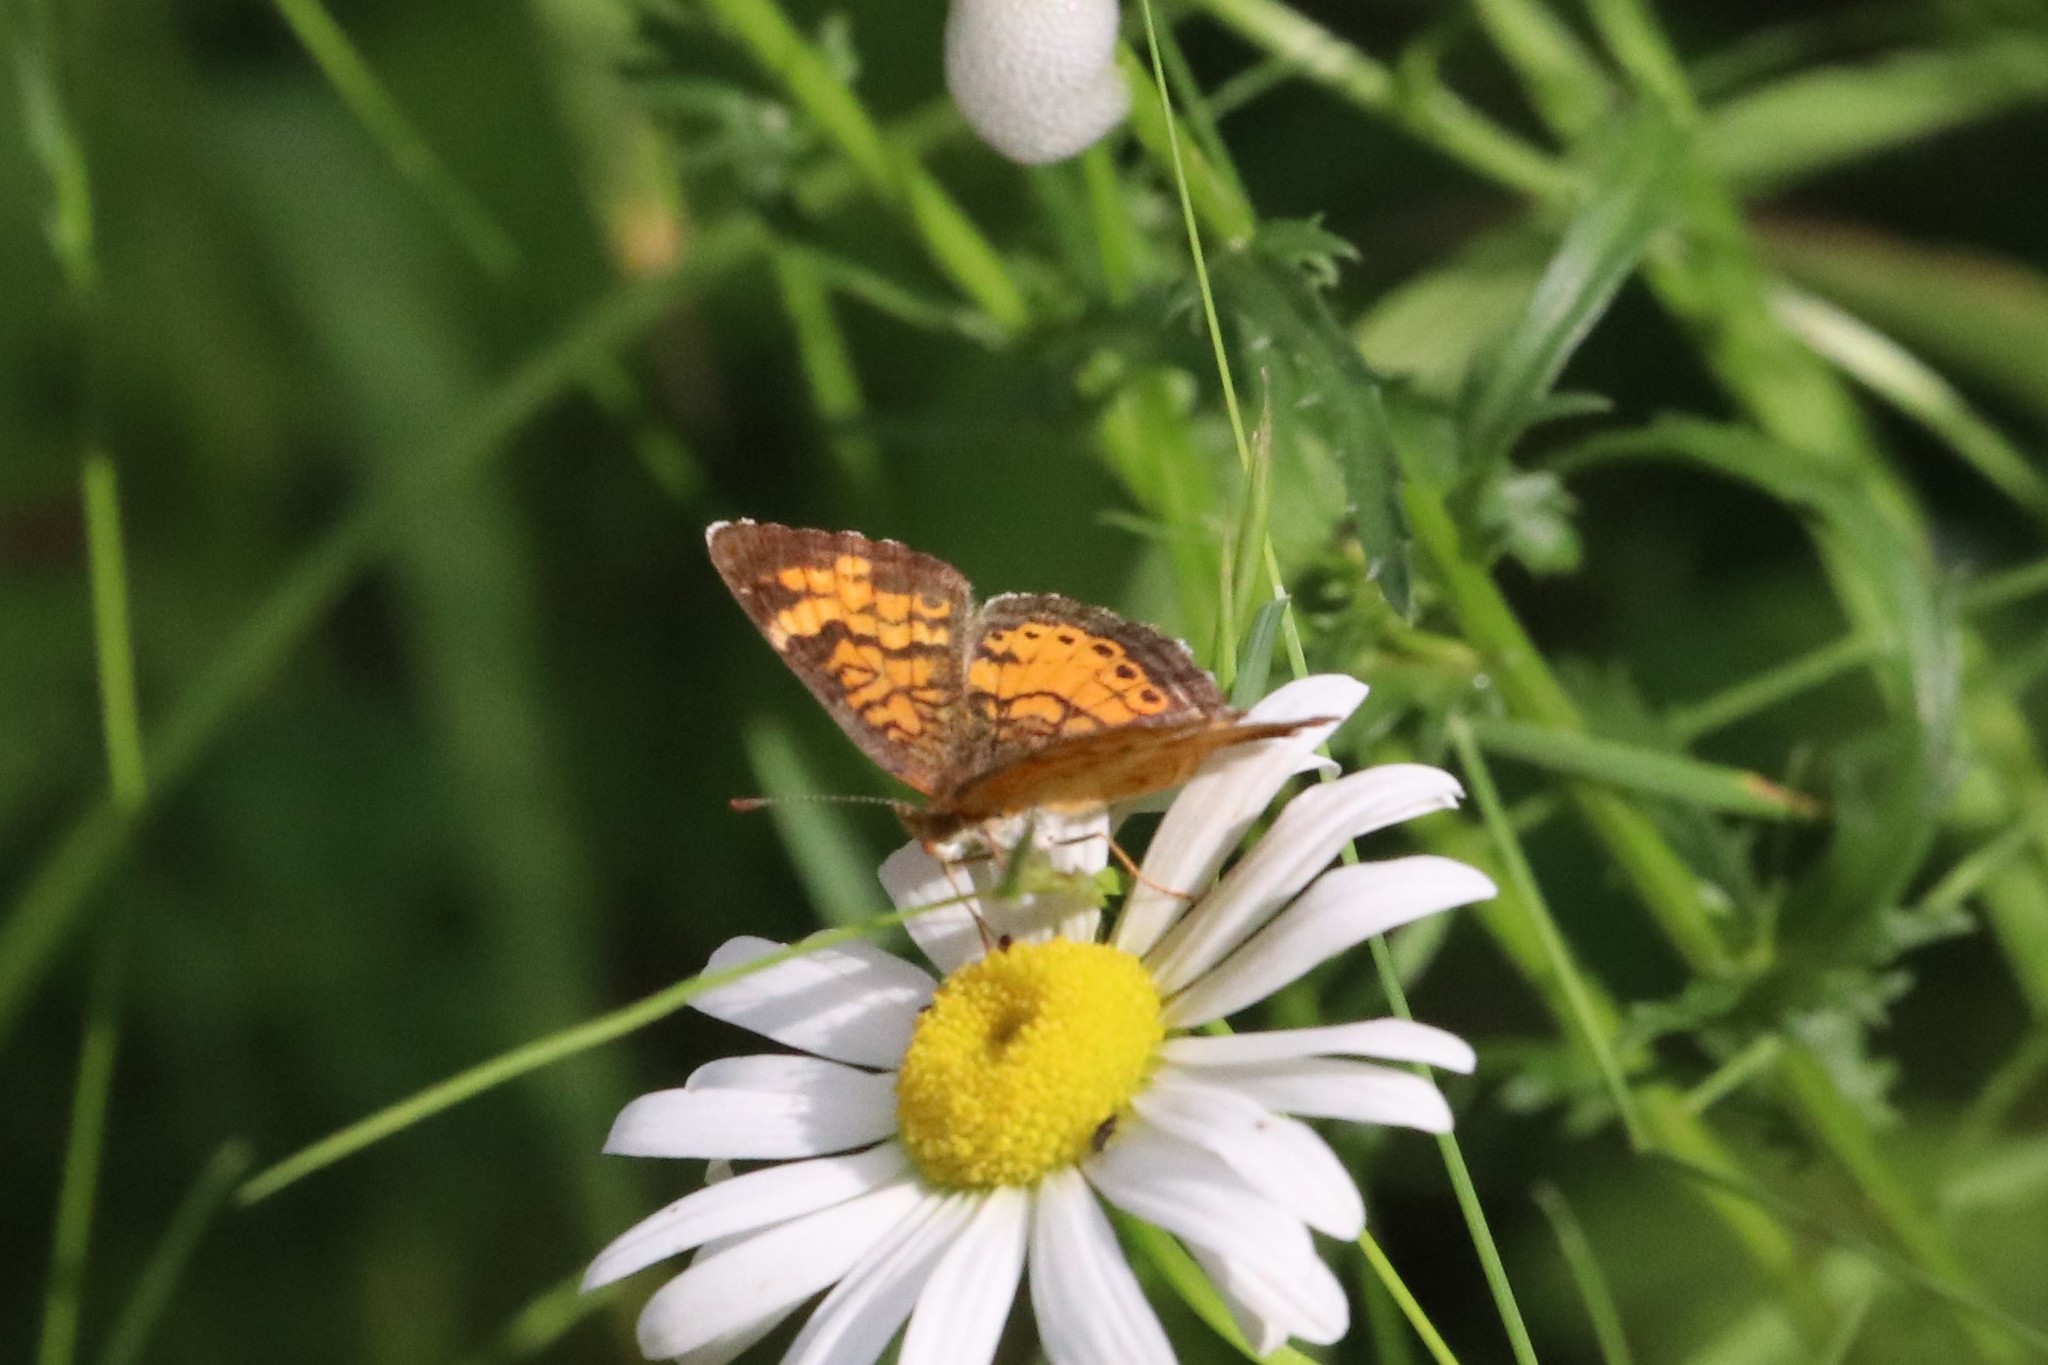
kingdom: Animalia
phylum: Arthropoda
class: Insecta
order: Lepidoptera
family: Nymphalidae
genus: Phyciodes
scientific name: Phyciodes tharos
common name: Pearl crescent
